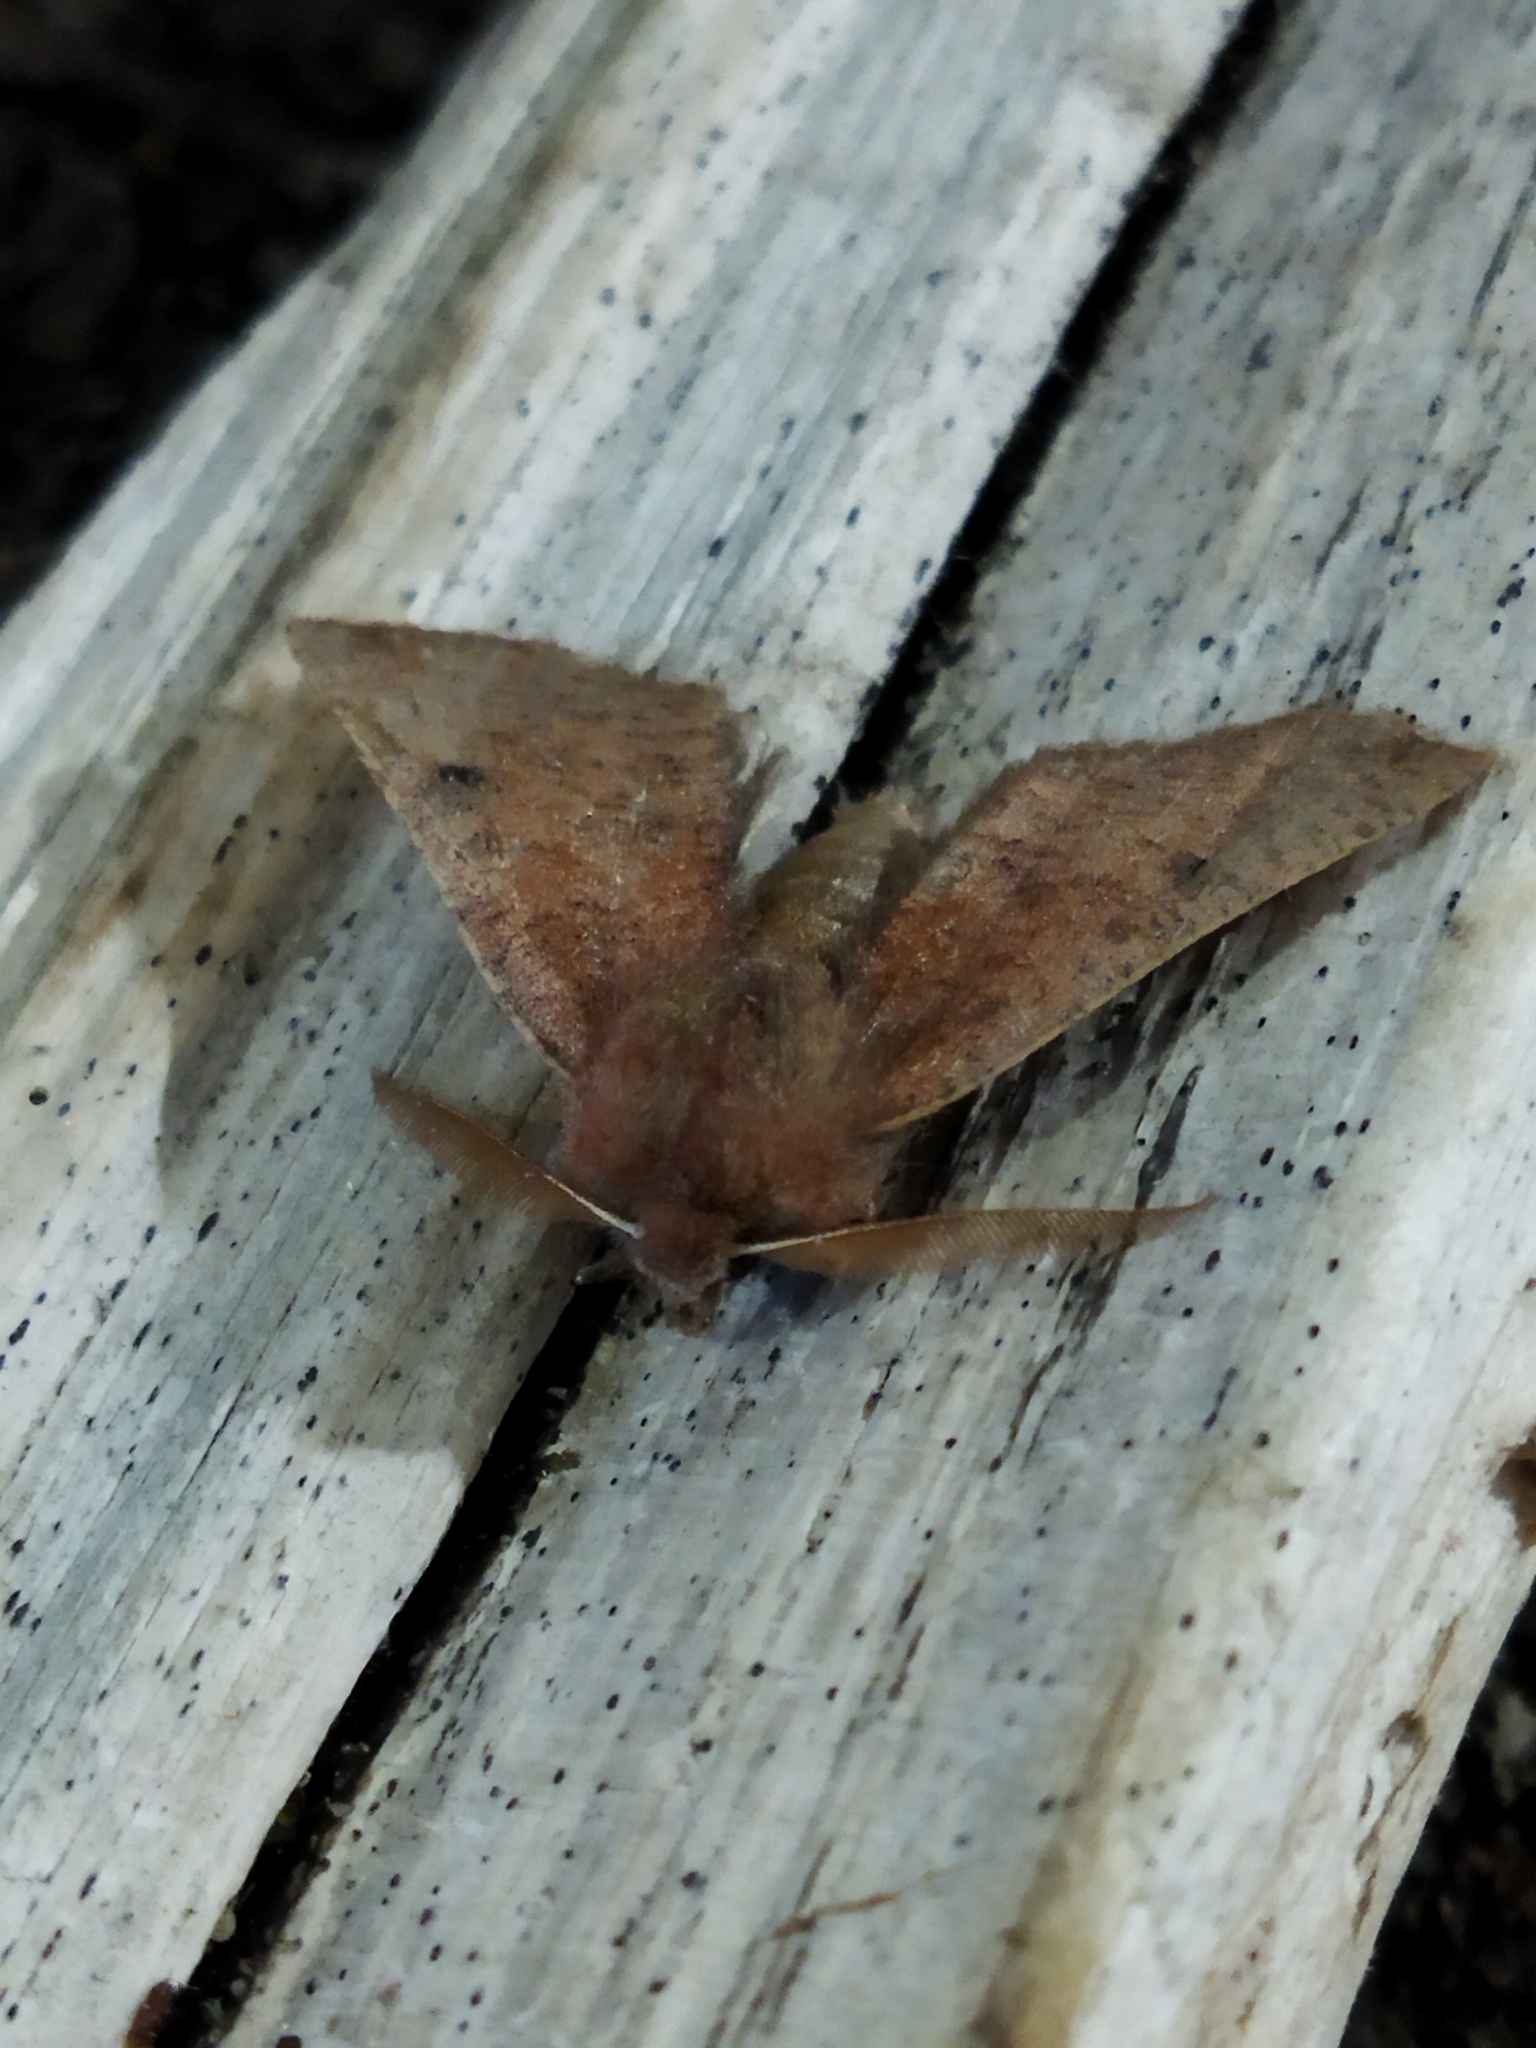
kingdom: Animalia
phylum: Arthropoda
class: Insecta
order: Lepidoptera
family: Geometridae
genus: Dasycorsa
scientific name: Dasycorsa modesta
